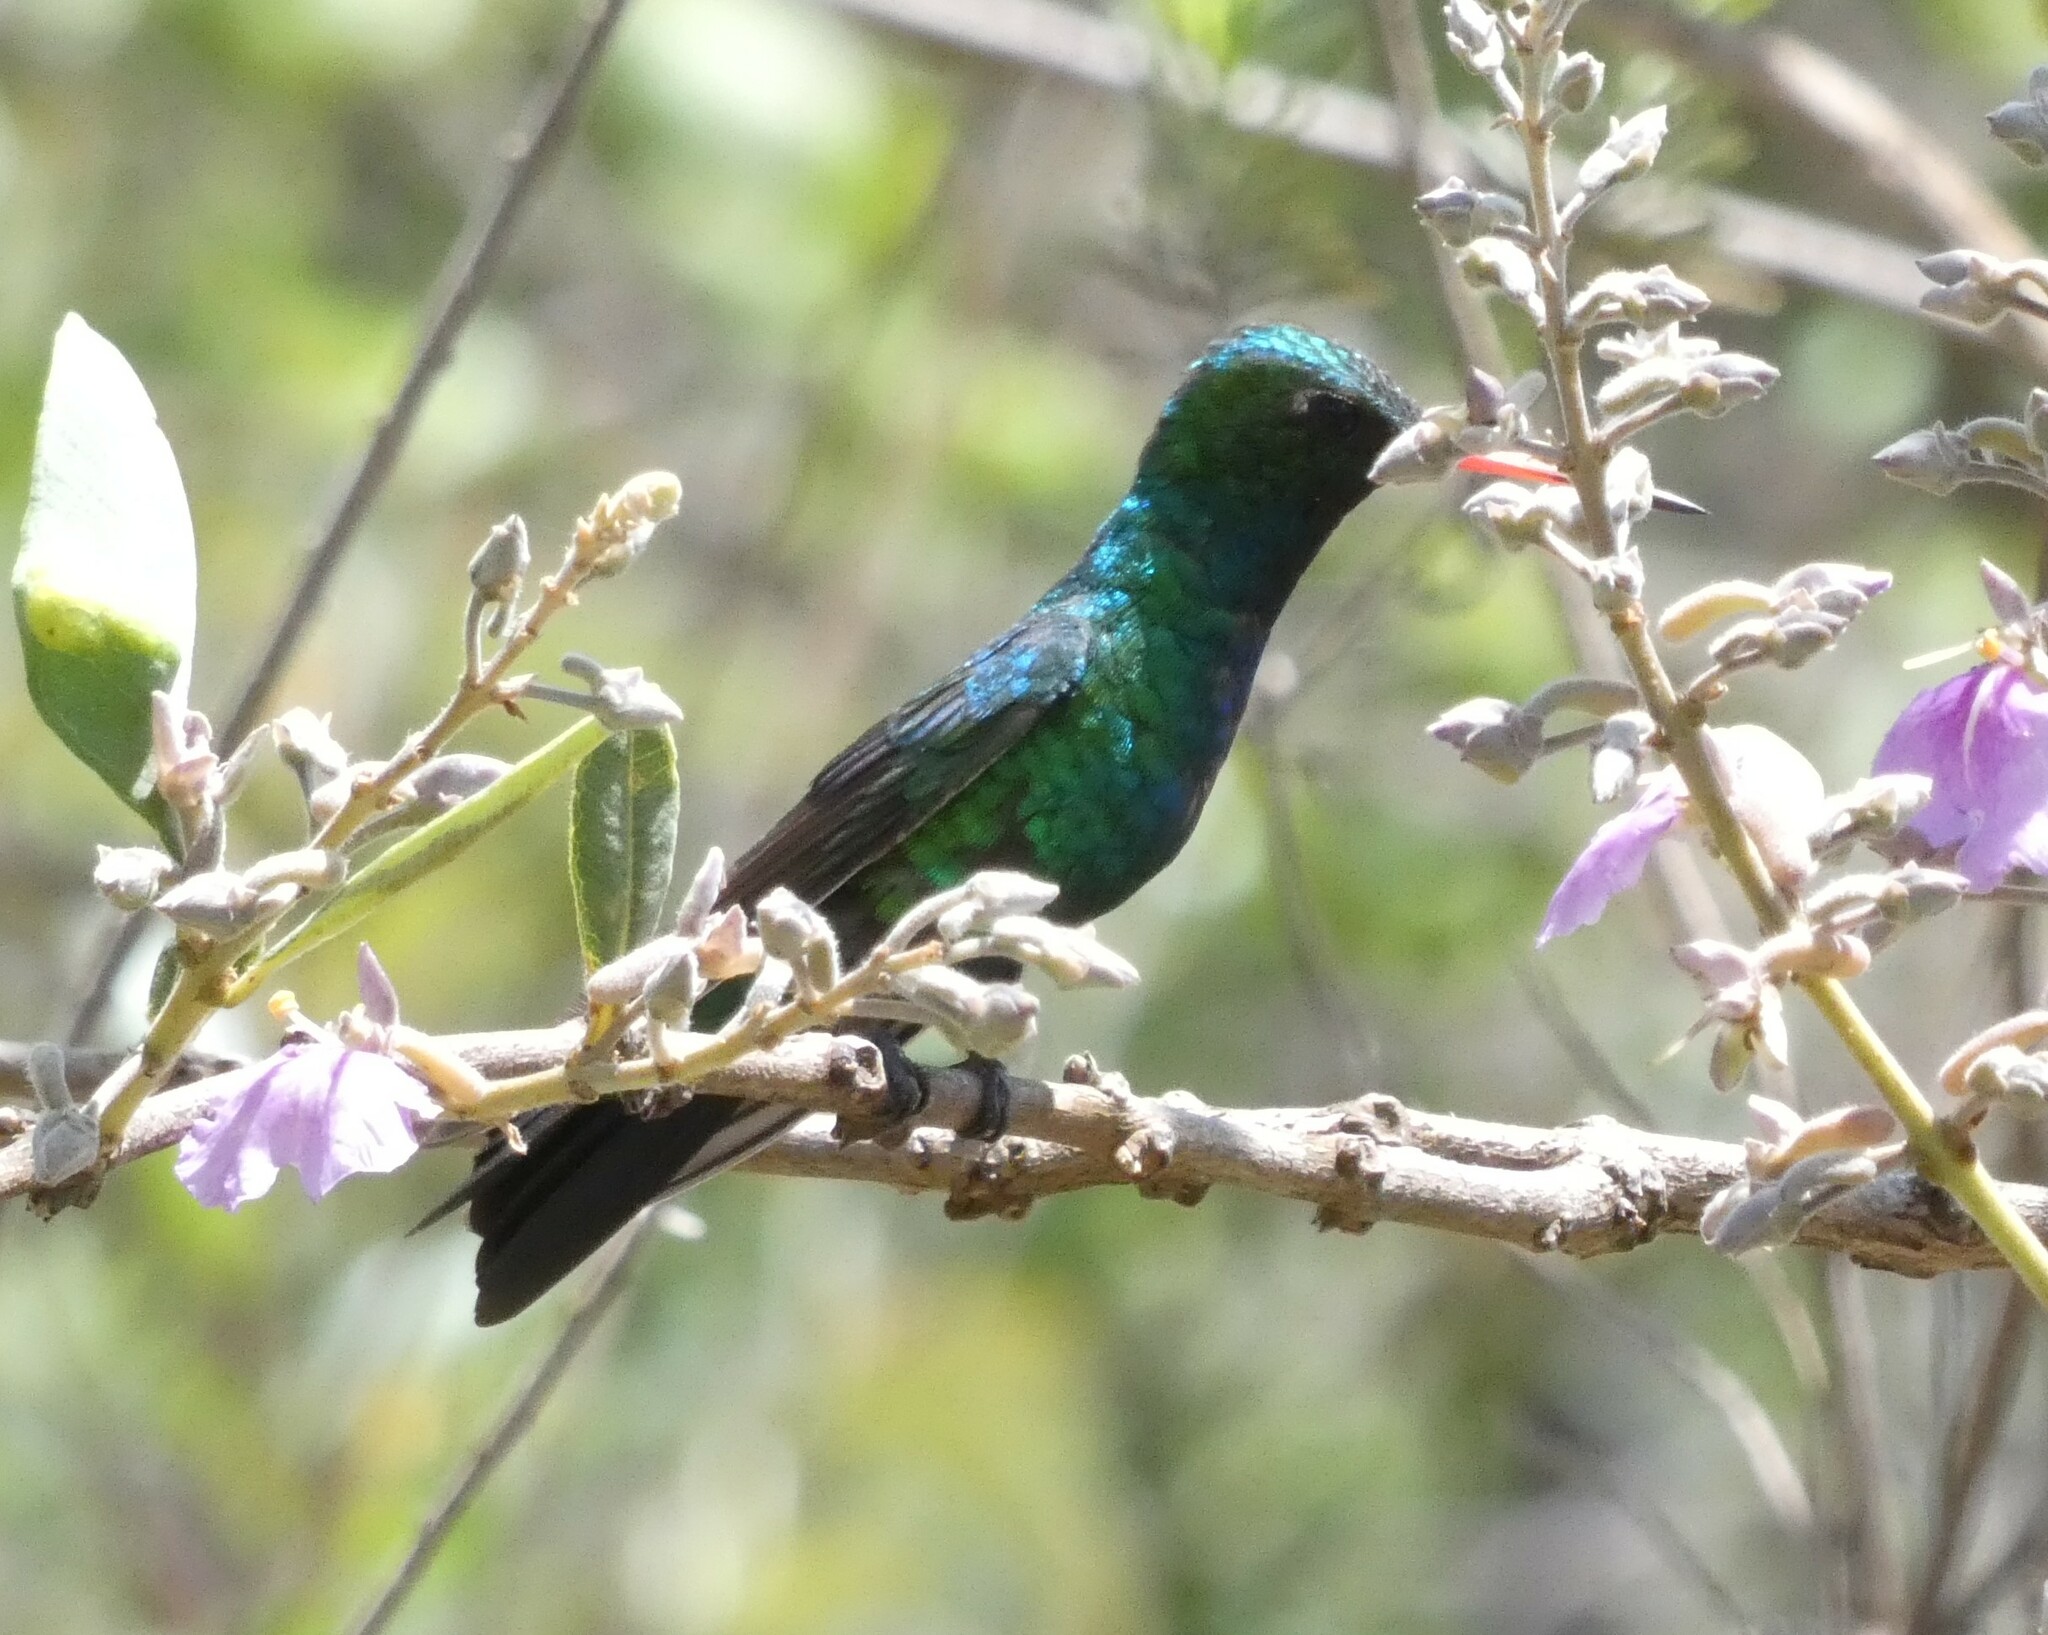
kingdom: Animalia
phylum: Chordata
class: Aves
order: Apodiformes
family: Trochilidae
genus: Chlorostilbon
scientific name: Chlorostilbon lucidus
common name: Glittering-bellied emerald
